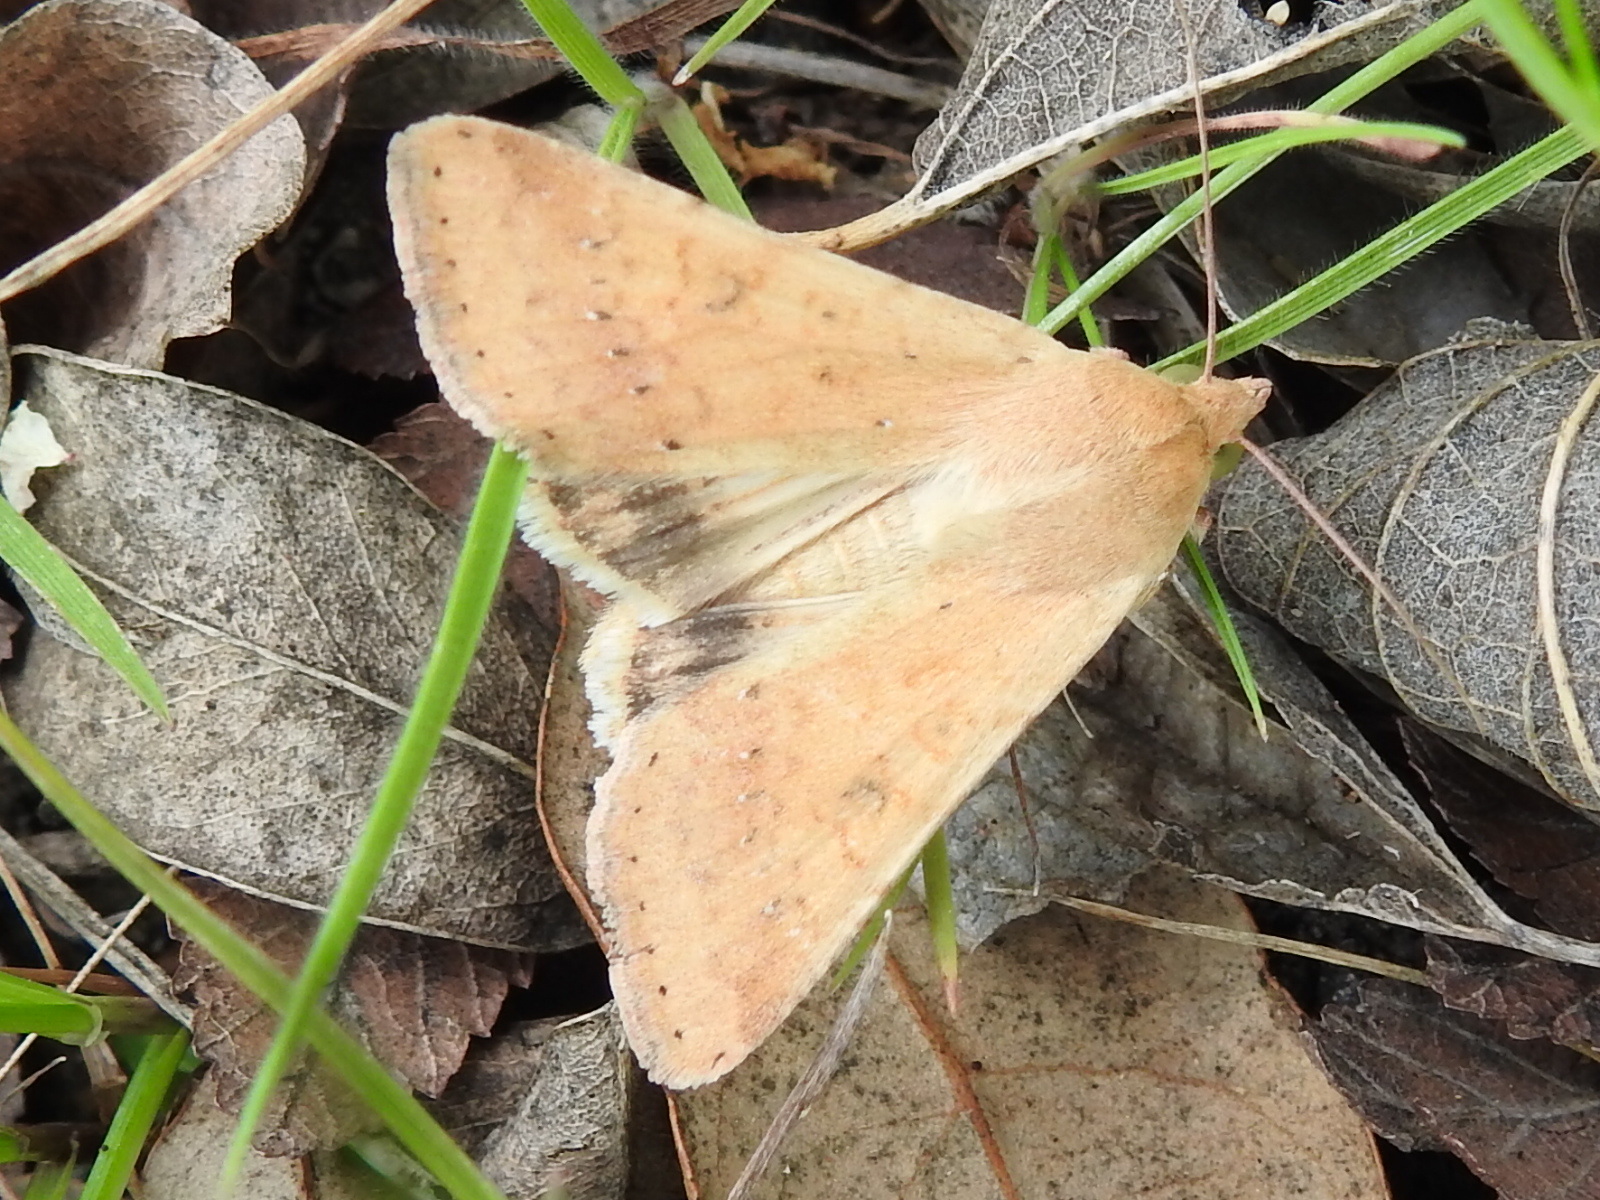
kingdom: Animalia
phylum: Arthropoda
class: Insecta
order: Lepidoptera
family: Noctuidae
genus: Helicoverpa
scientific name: Helicoverpa zea
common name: Bollworm
